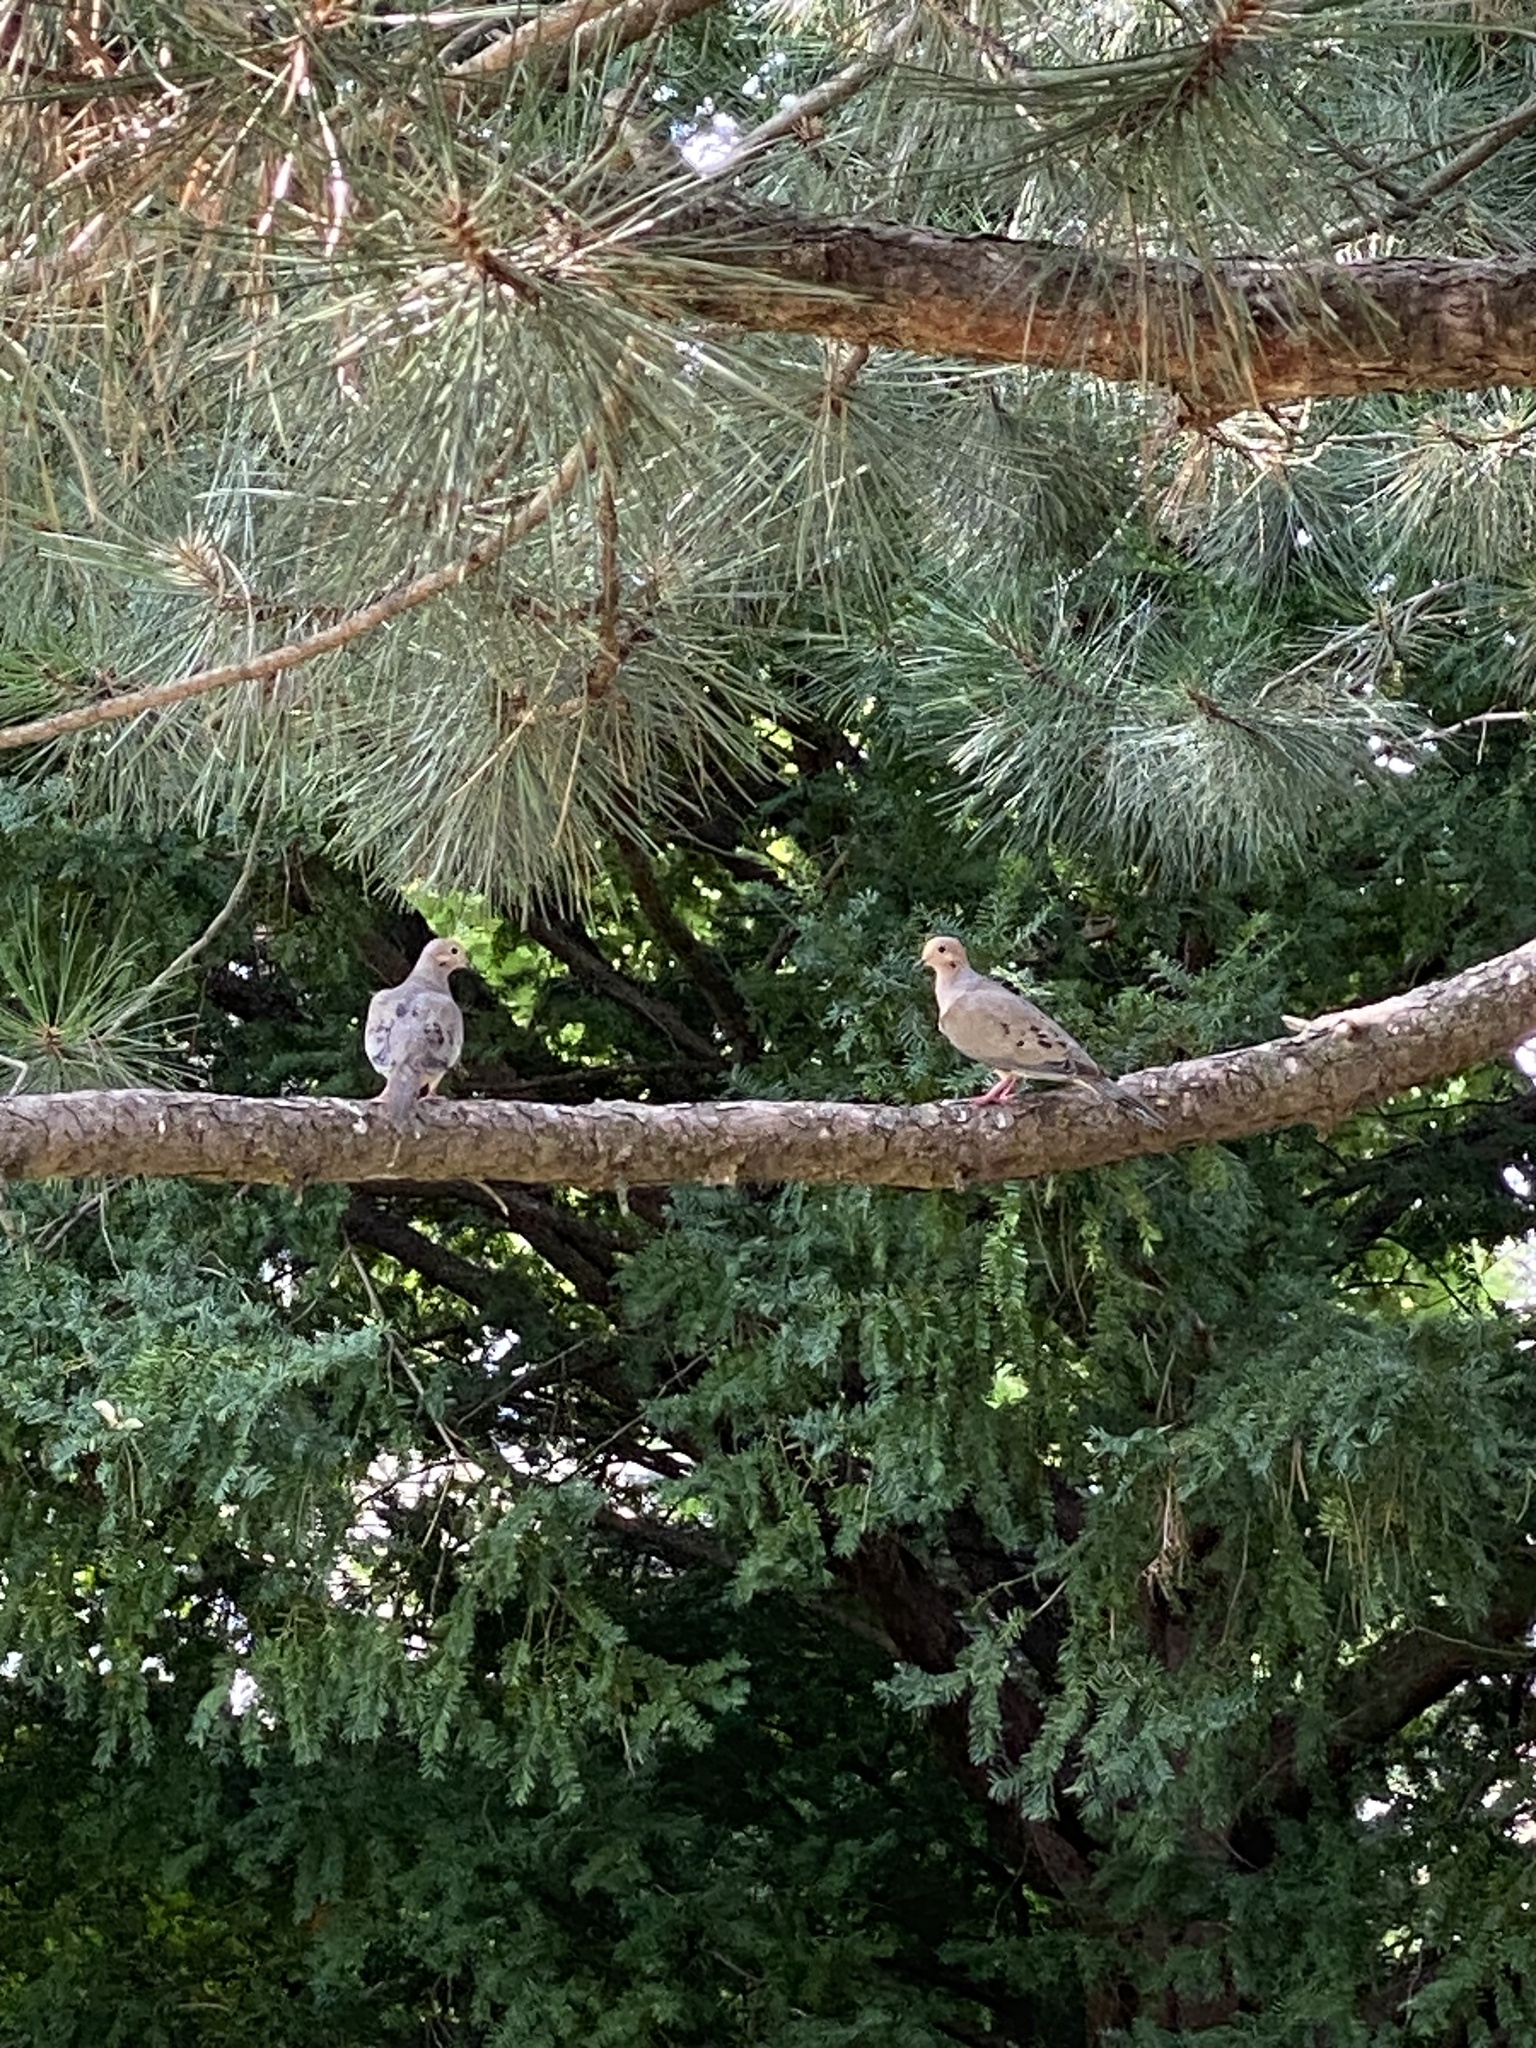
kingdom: Animalia
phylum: Chordata
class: Aves
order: Columbiformes
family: Columbidae
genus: Zenaida
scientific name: Zenaida macroura
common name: Mourning dove
